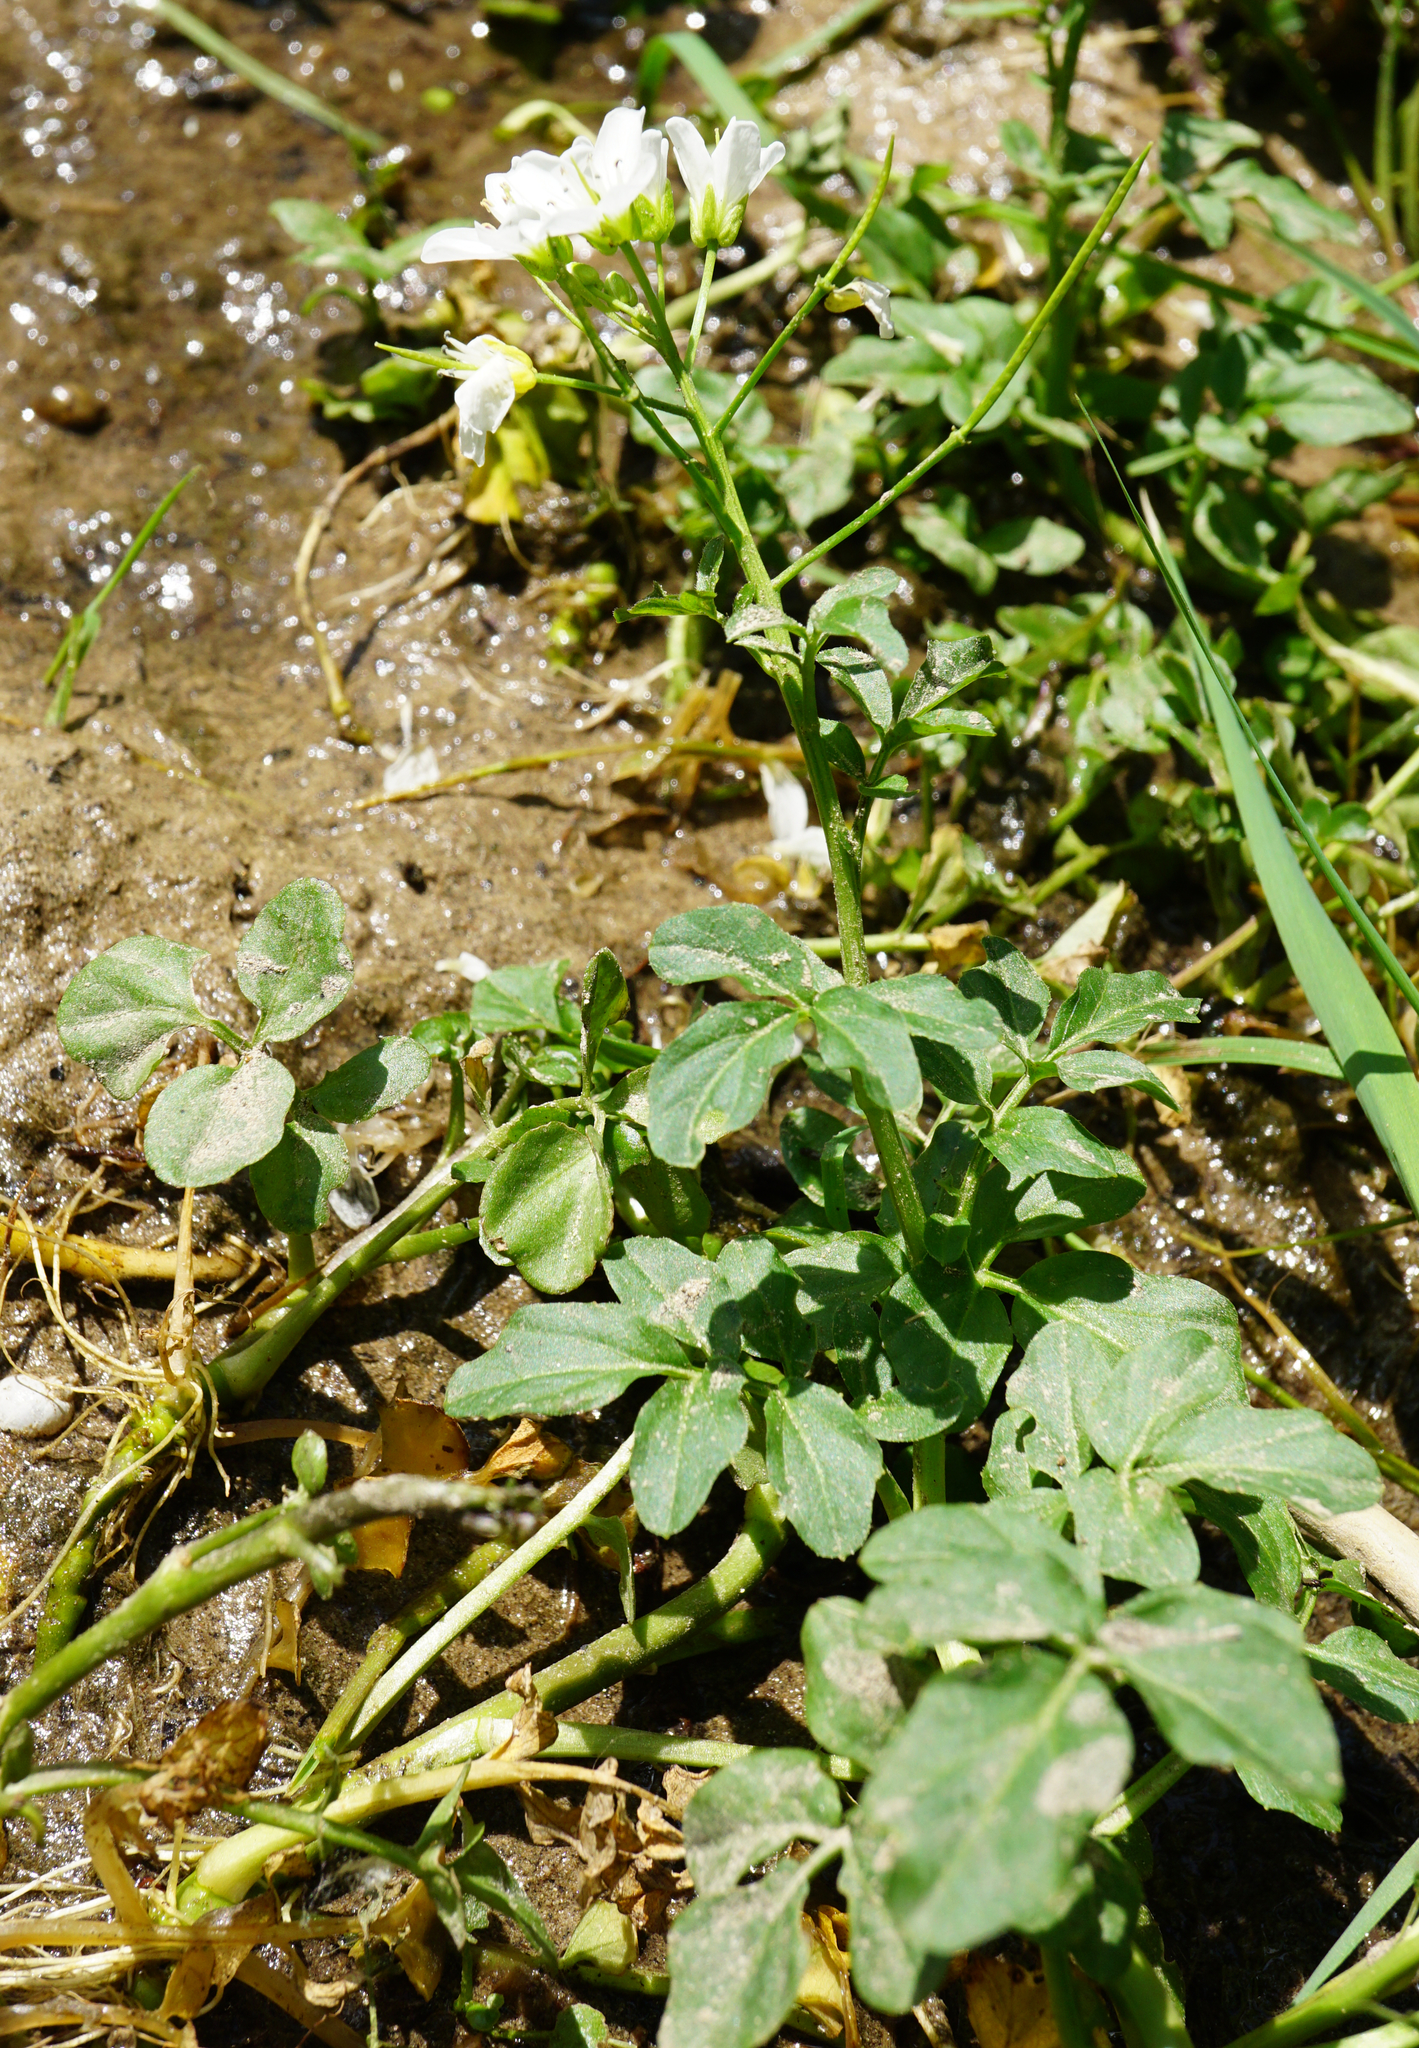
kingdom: Plantae
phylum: Tracheophyta
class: Magnoliopsida
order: Brassicales
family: Brassicaceae
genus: Cardamine
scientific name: Cardamine amara
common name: Large bitter-cress
